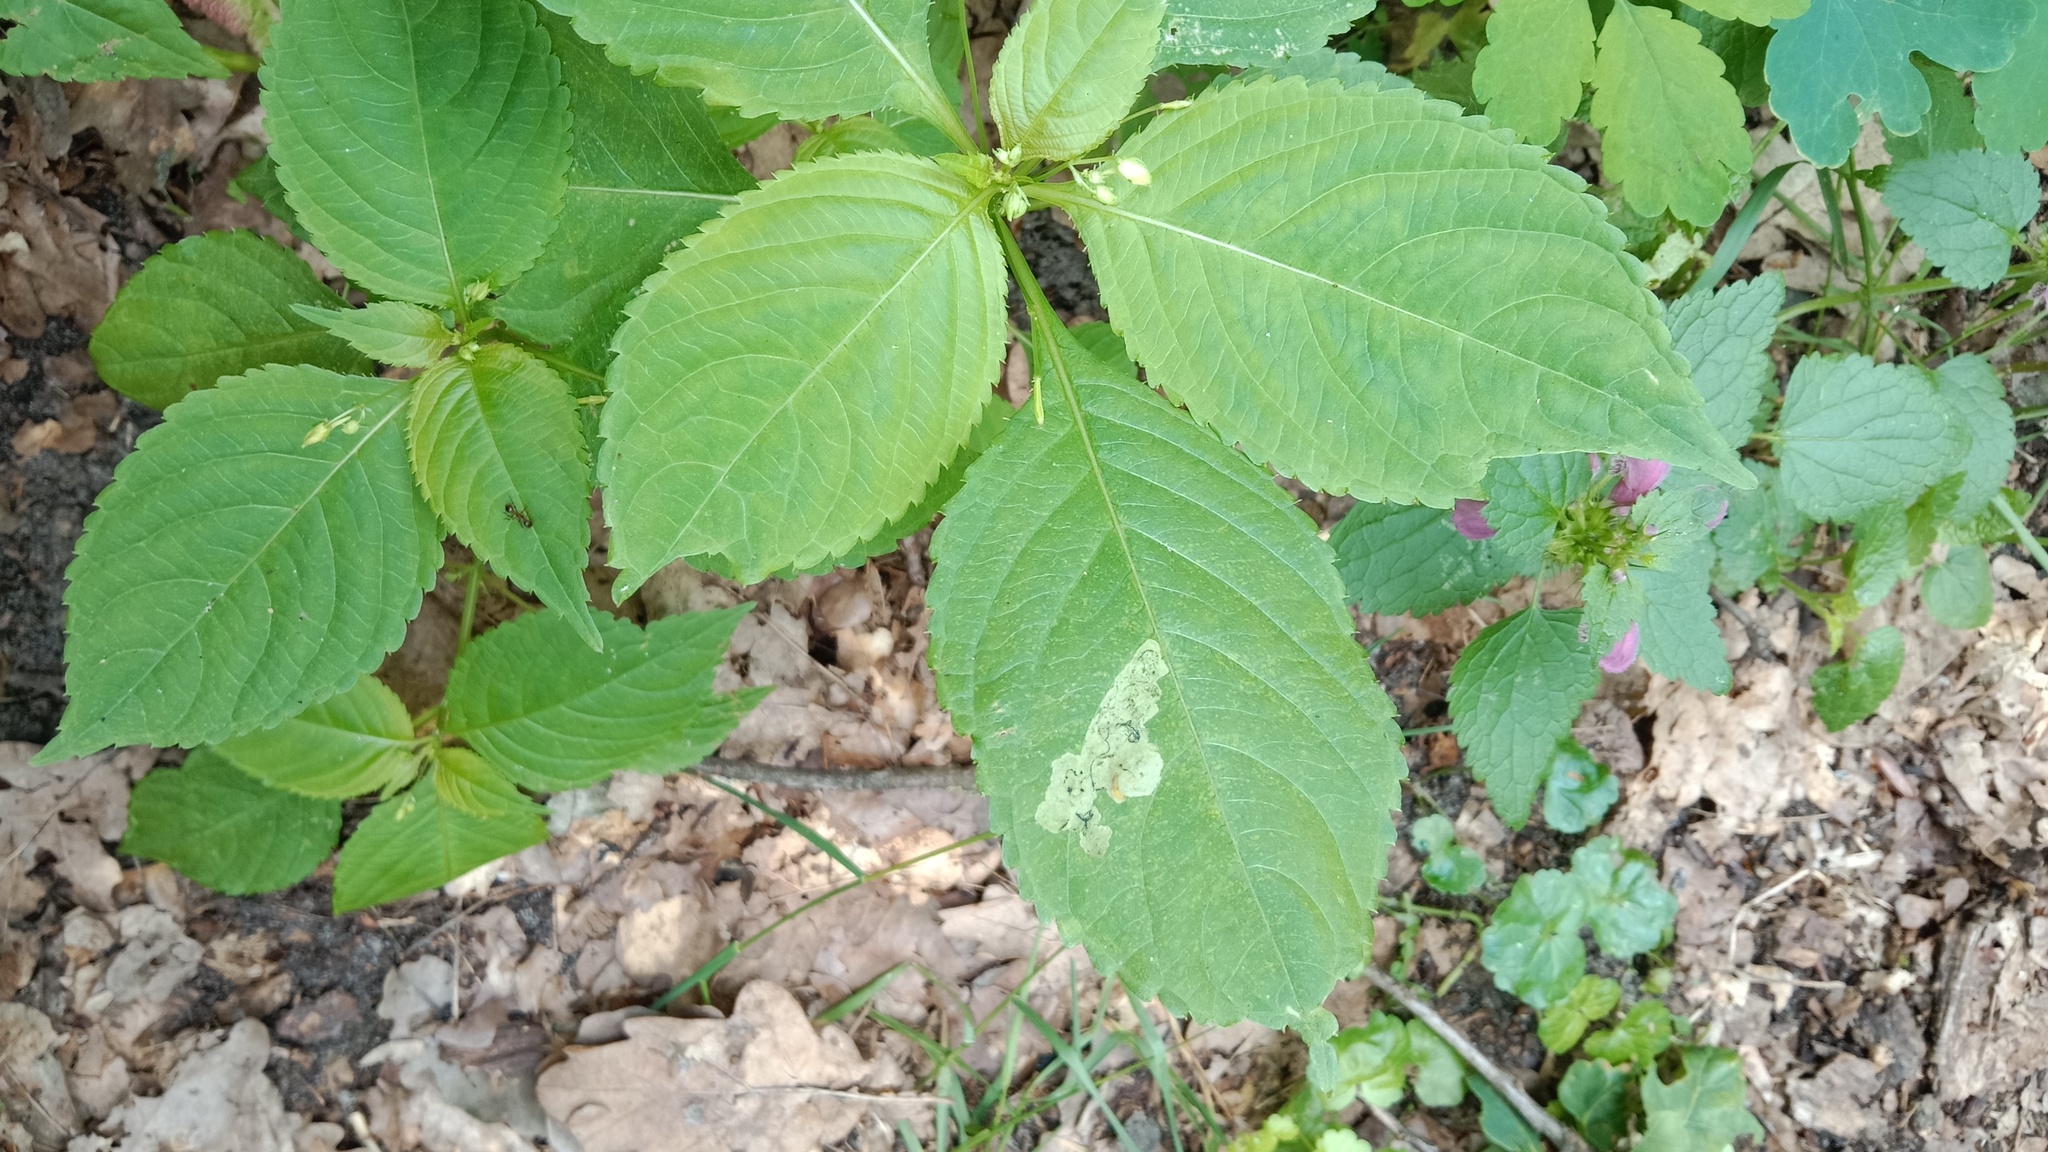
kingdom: Plantae
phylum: Tracheophyta
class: Magnoliopsida
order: Ericales
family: Balsaminaceae
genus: Impatiens
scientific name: Impatiens parviflora
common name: Small balsam
